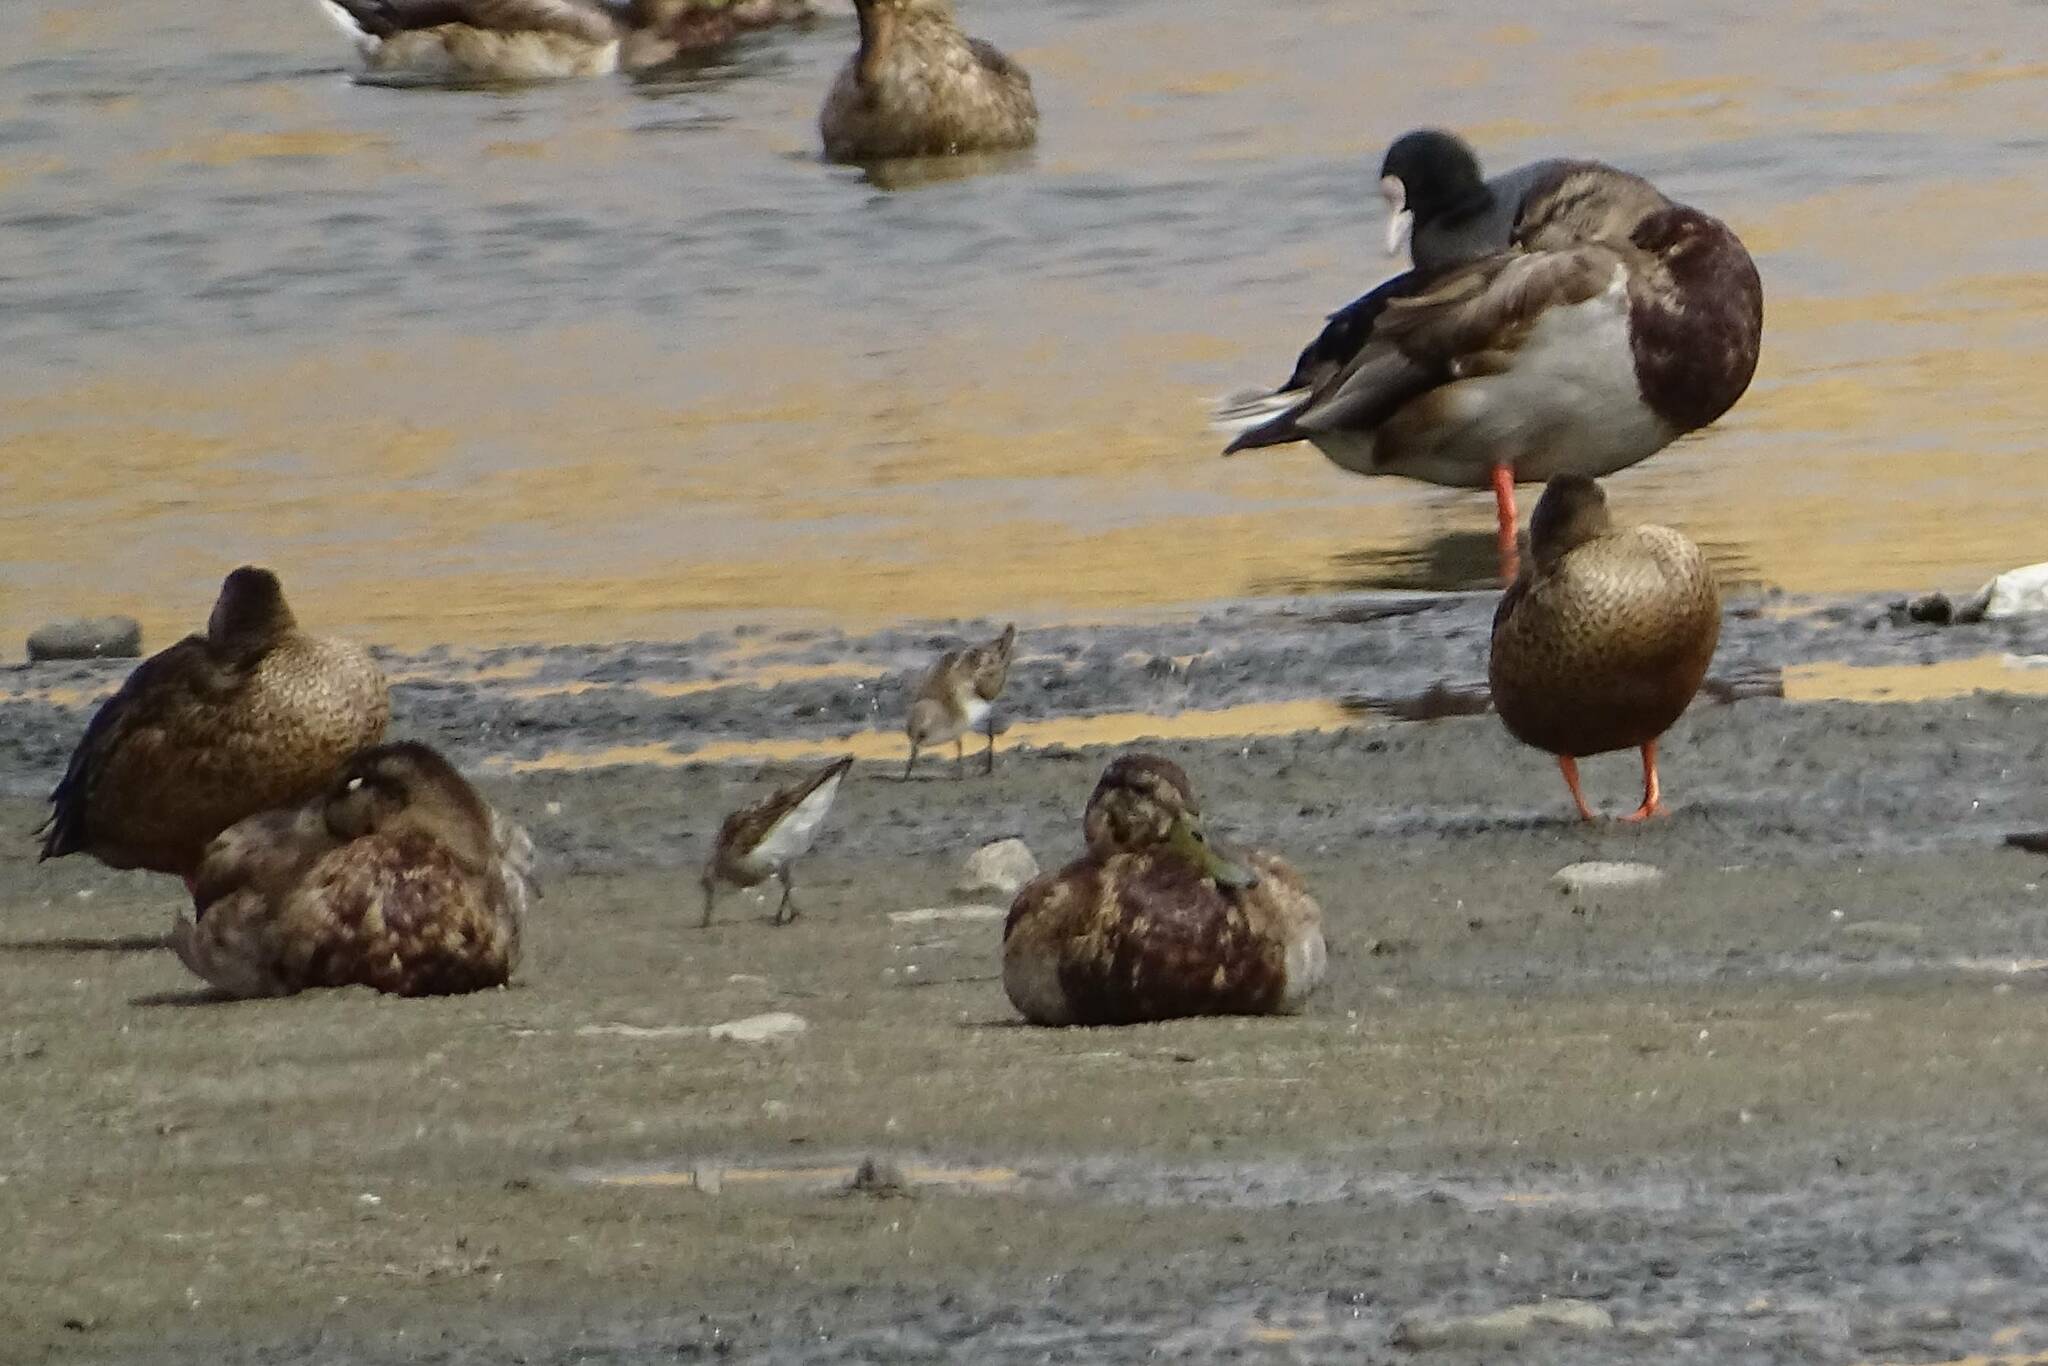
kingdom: Animalia
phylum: Chordata
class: Aves
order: Anseriformes
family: Anatidae
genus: Anas
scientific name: Anas platyrhynchos
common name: Mallard
